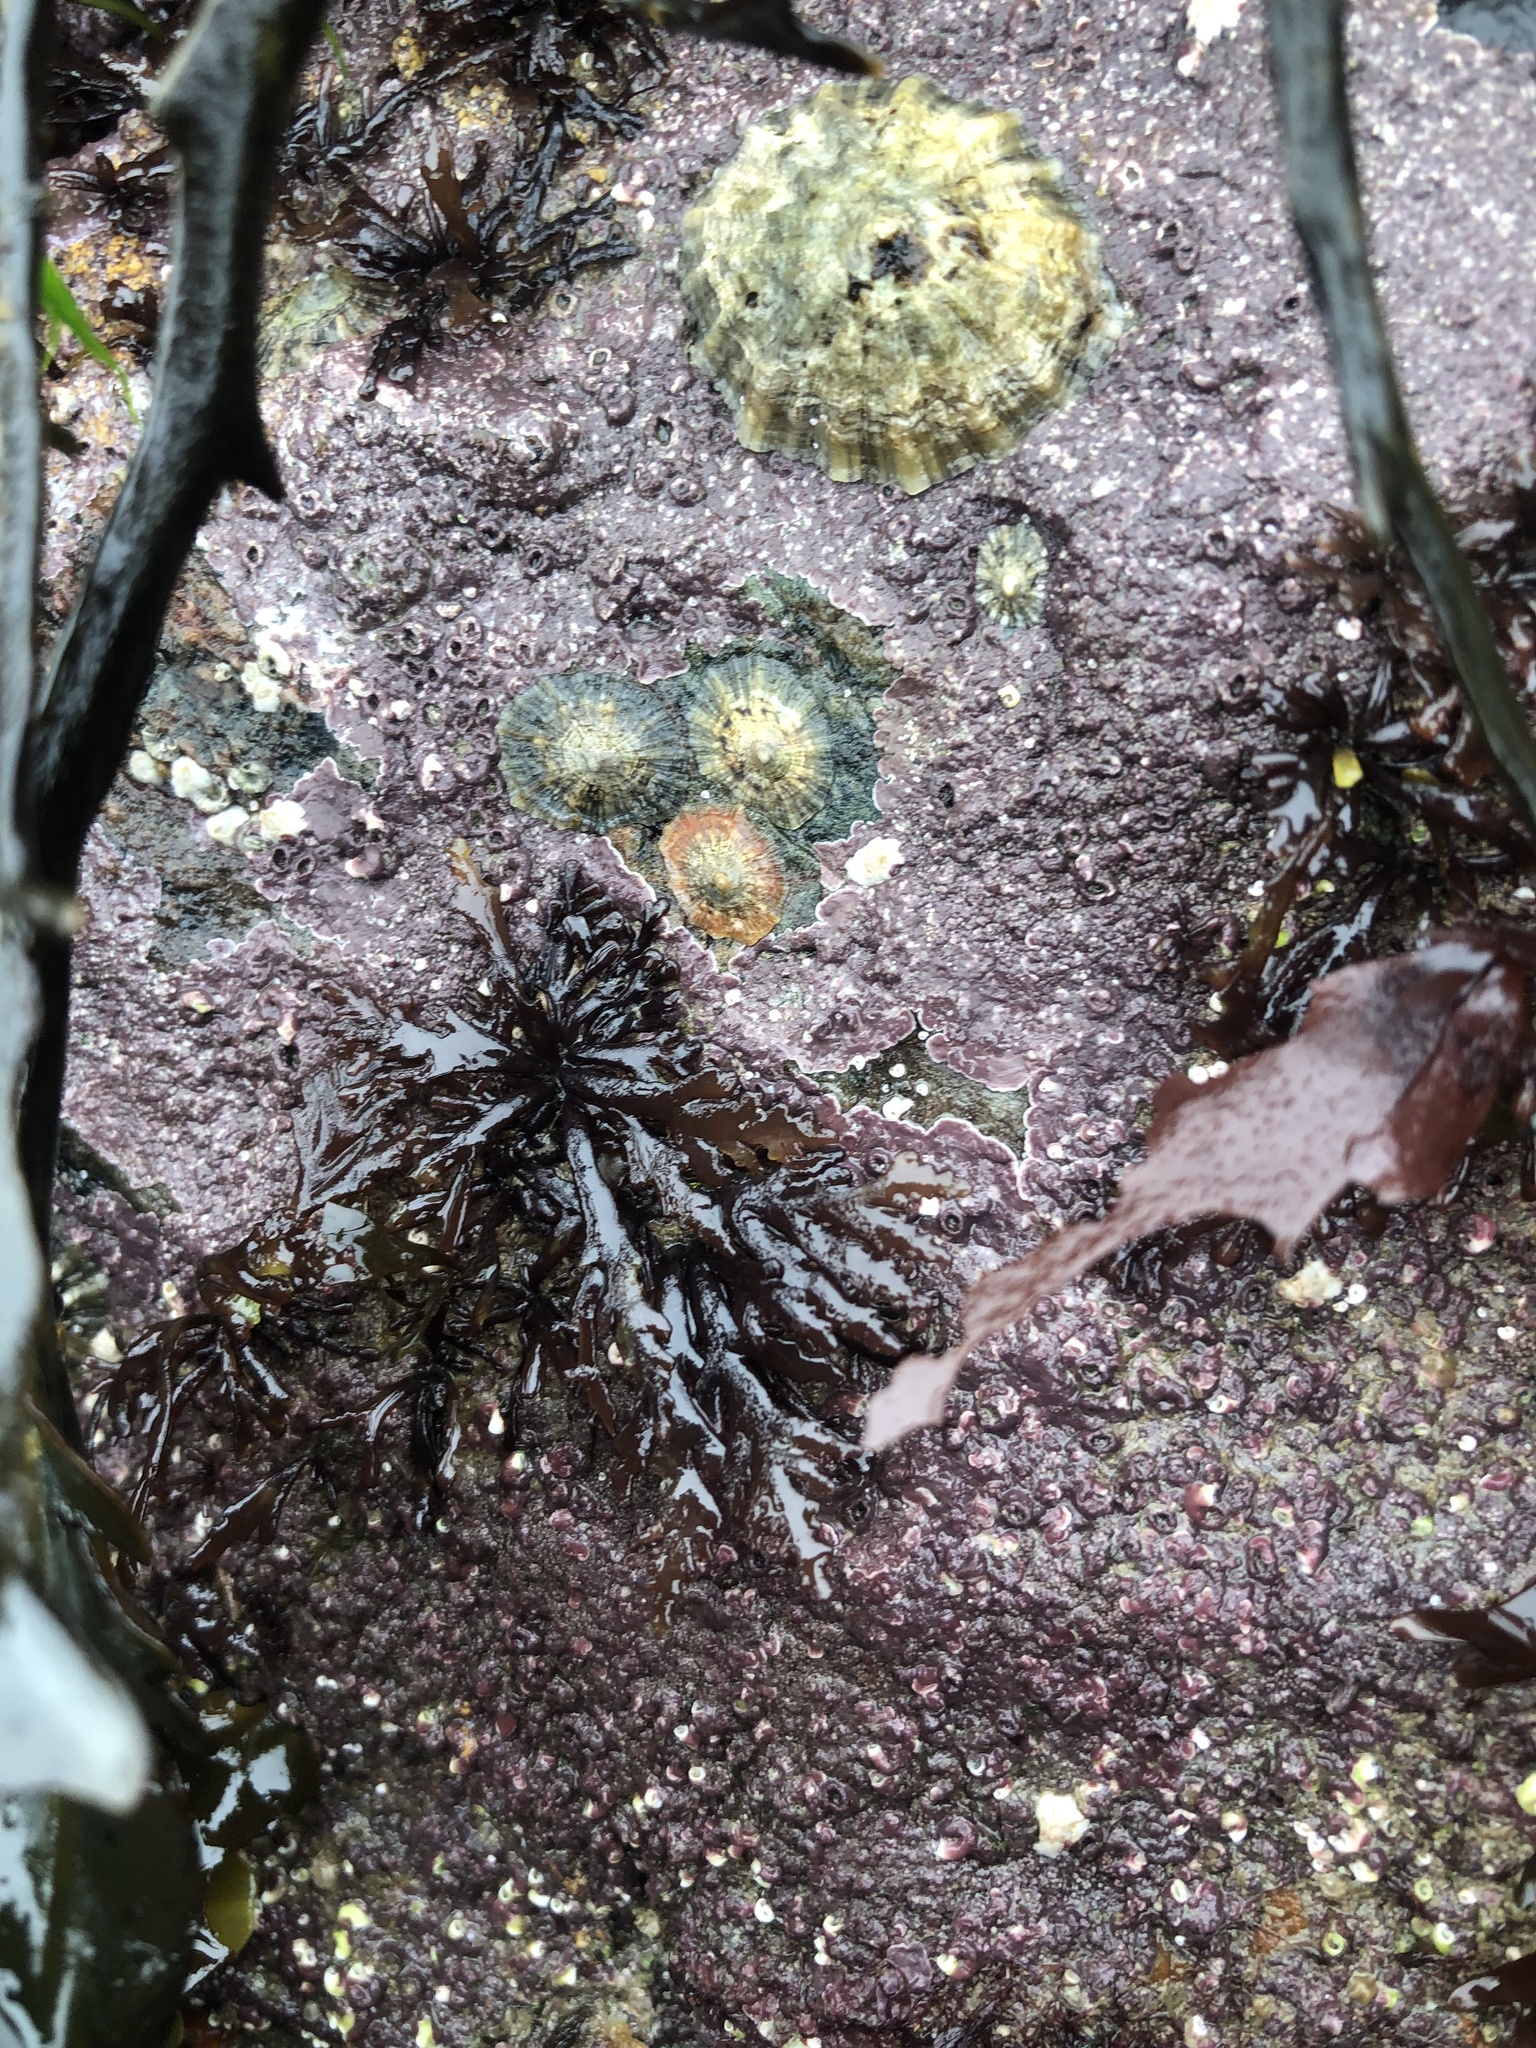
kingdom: Plantae
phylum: Rhodophyta
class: Florideophyceae
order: Ceramiales
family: Rhodomelaceae
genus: Laurencia
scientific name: Laurencia Osmundea pinnatifida
